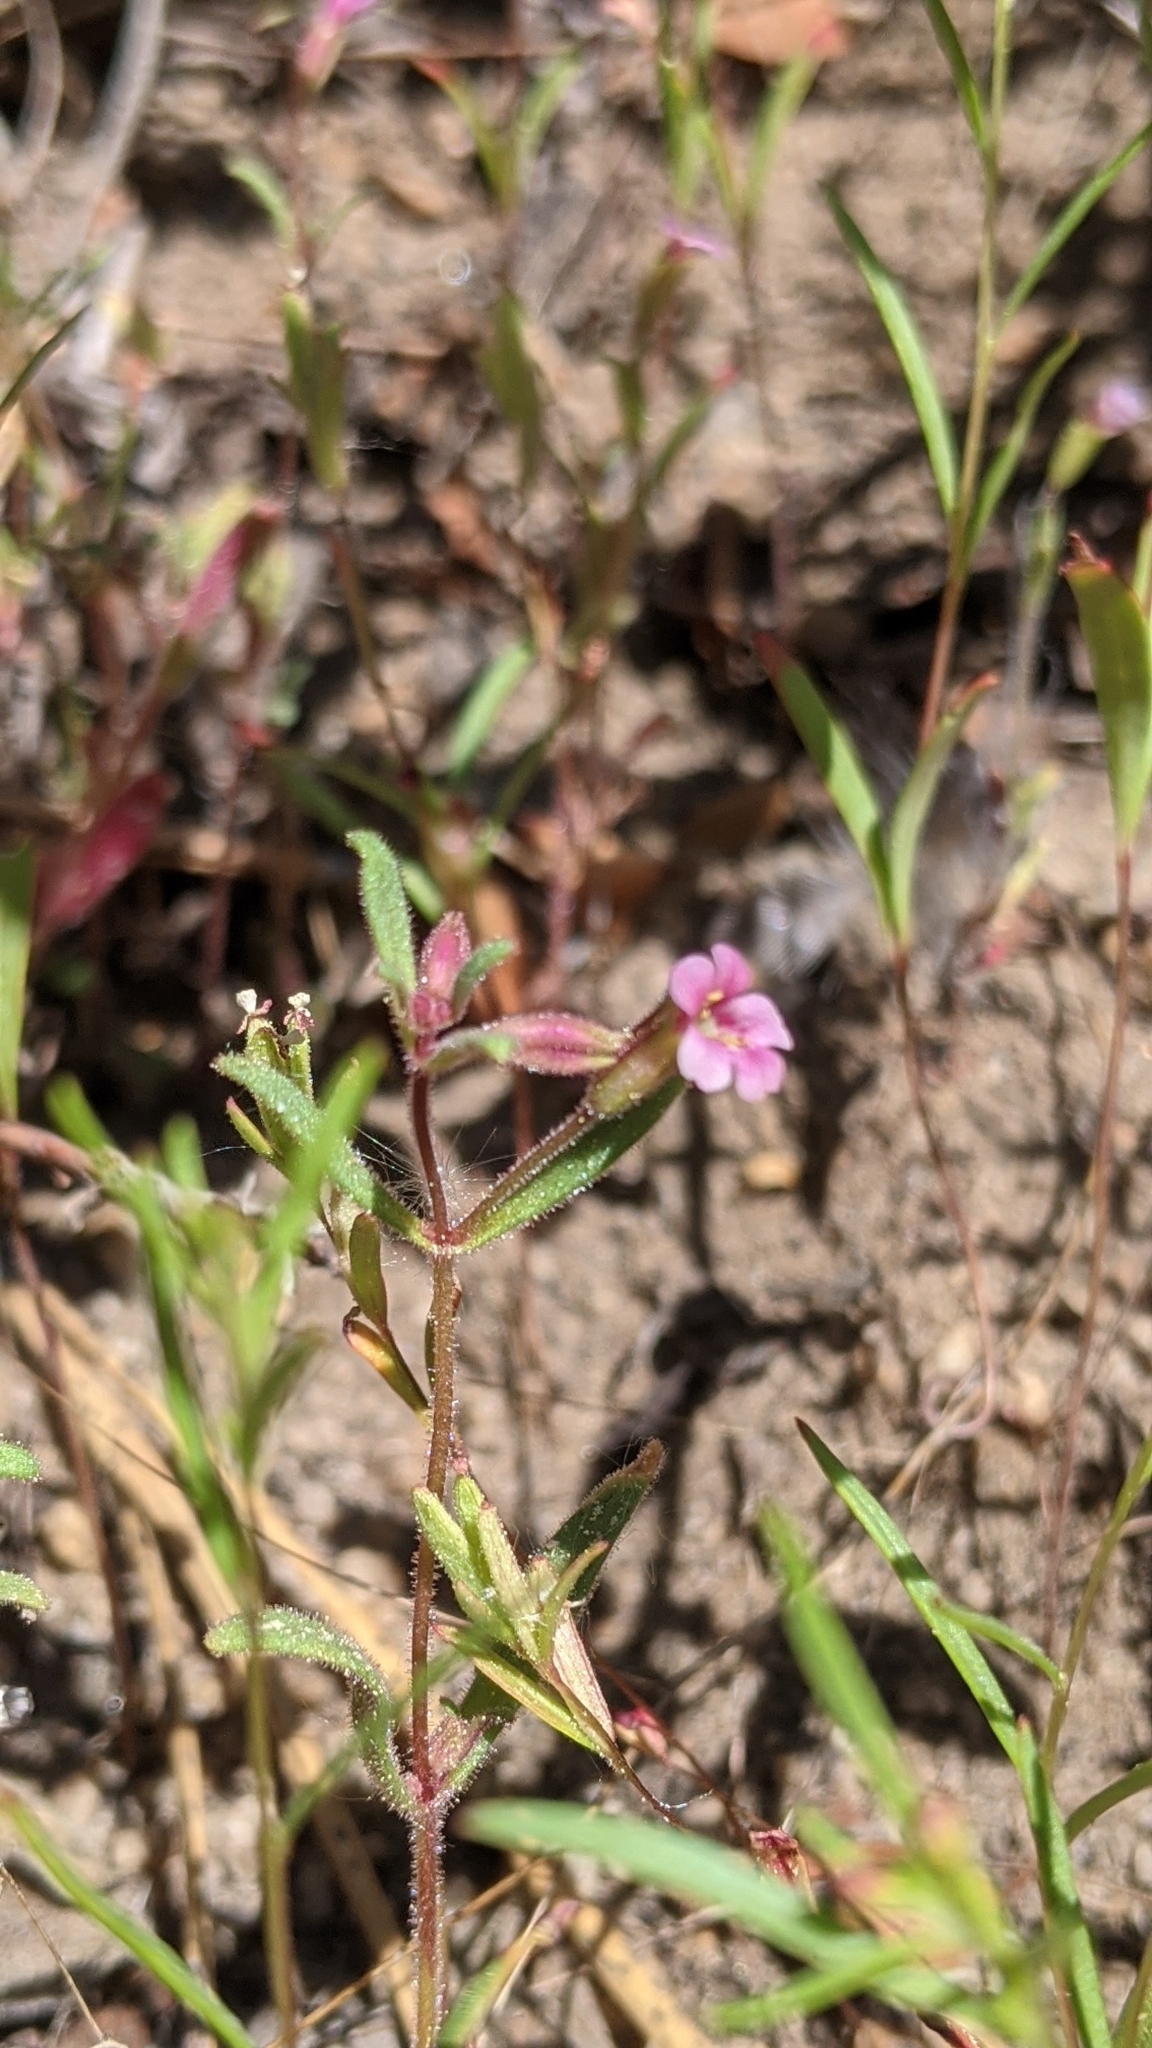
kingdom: Plantae
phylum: Tracheophyta
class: Magnoliopsida
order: Lamiales
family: Phrymaceae
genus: Erythranthe
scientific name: Erythranthe breweri
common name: Brewer's monkeyflower
